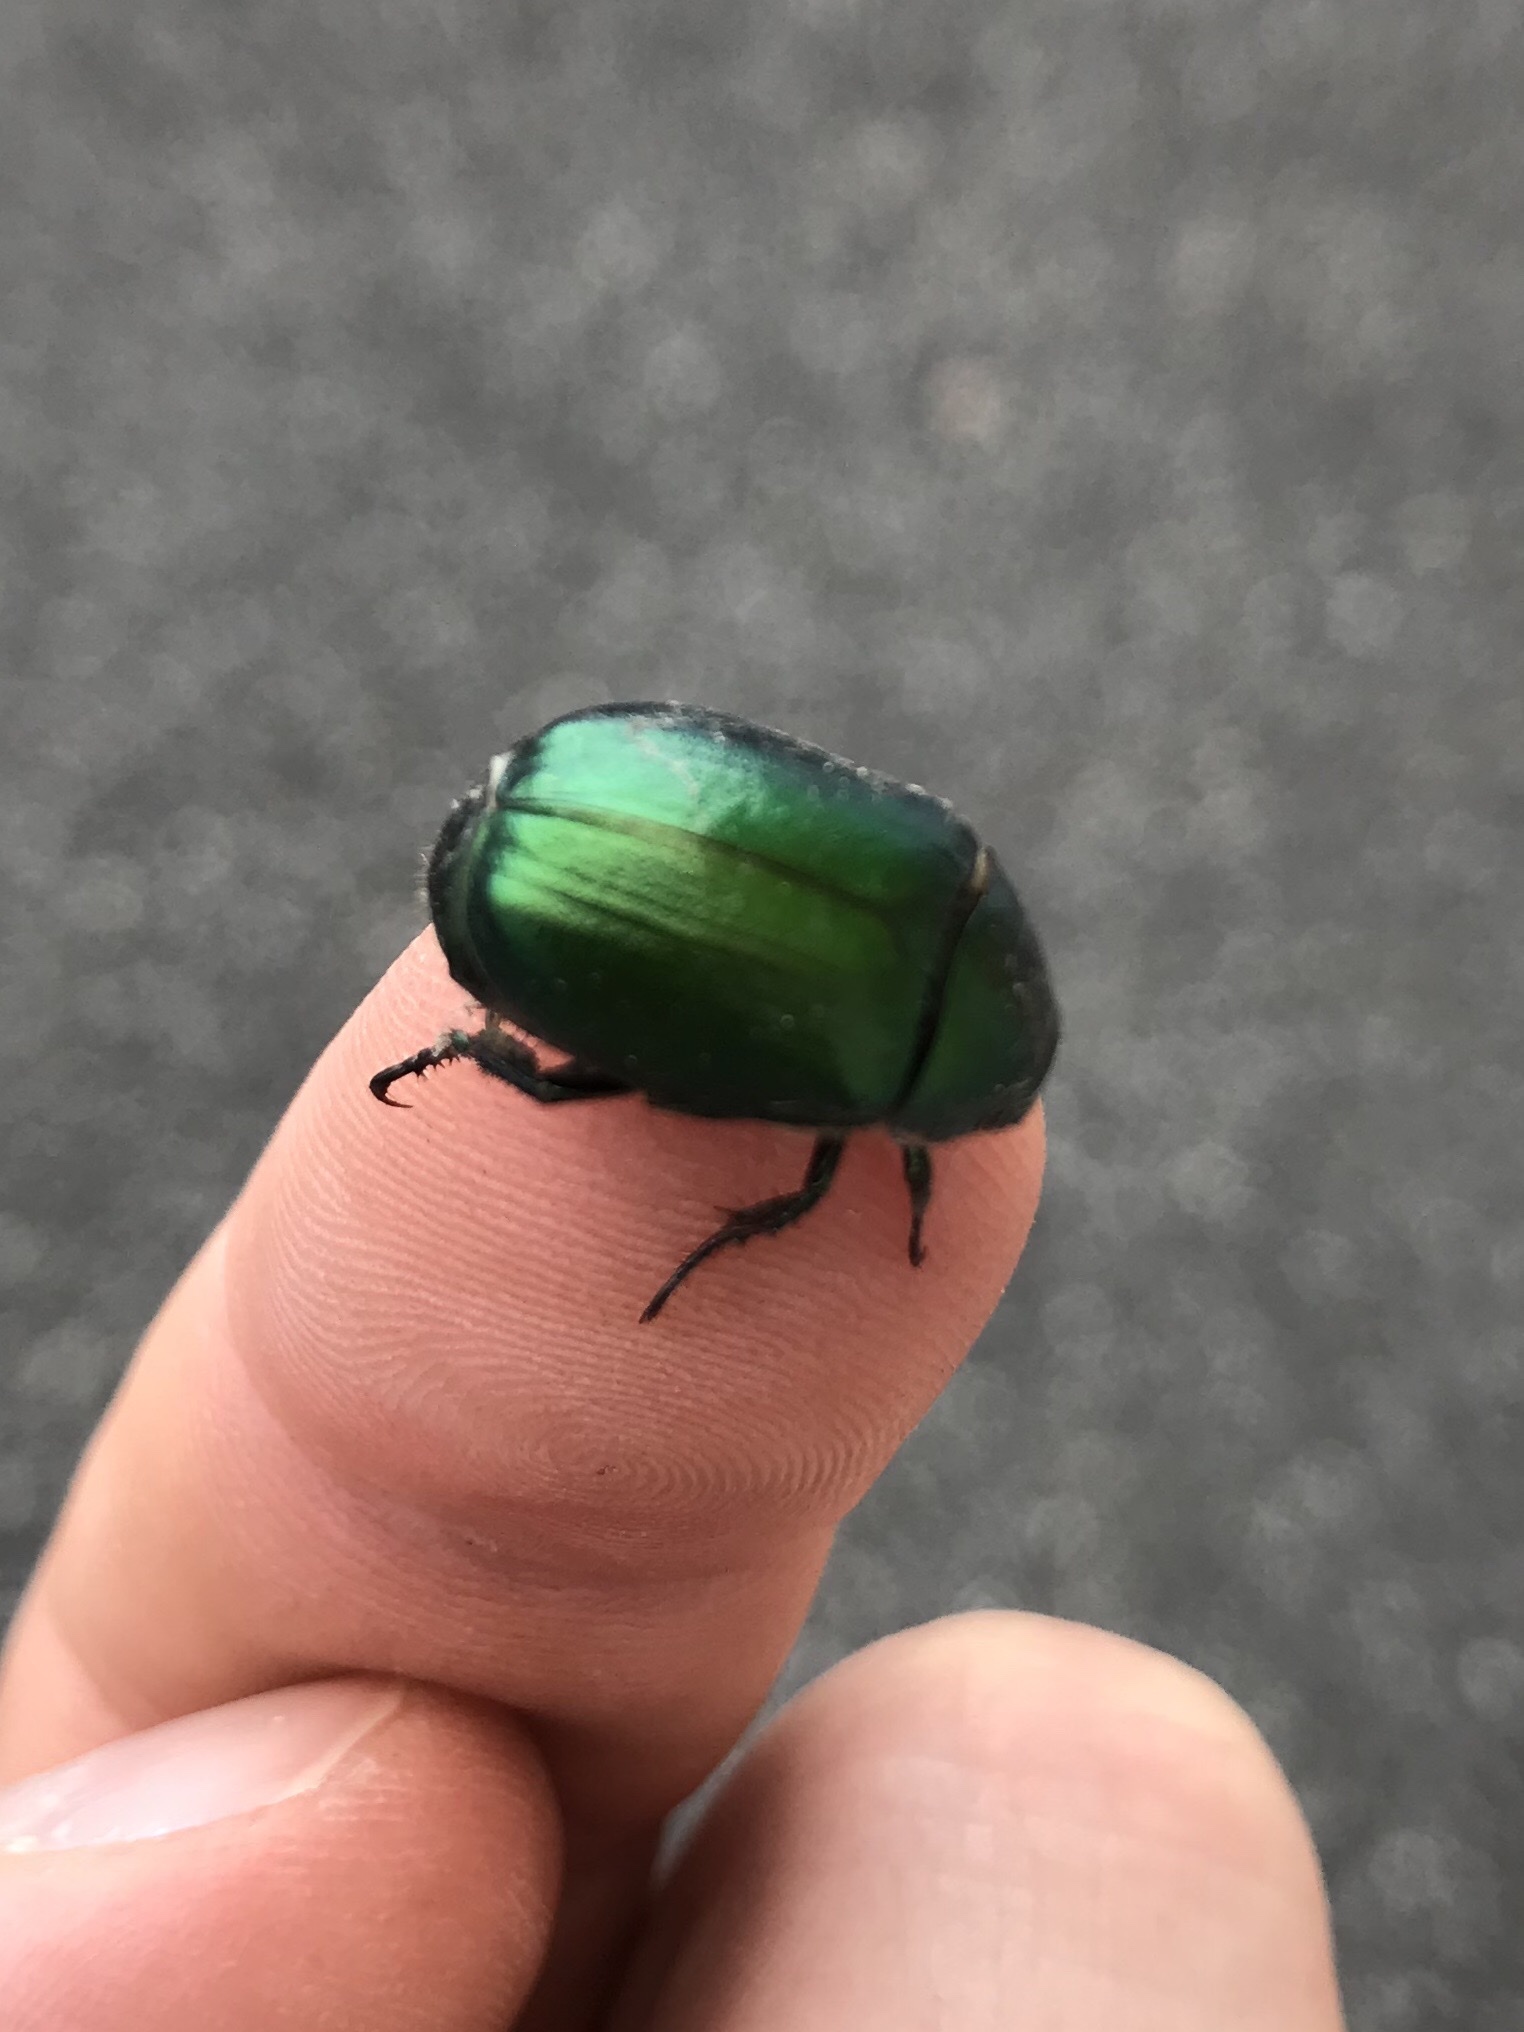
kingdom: Animalia
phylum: Arthropoda
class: Insecta
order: Coleoptera
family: Scarabaeidae
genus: Anomala
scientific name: Anomala vitis
